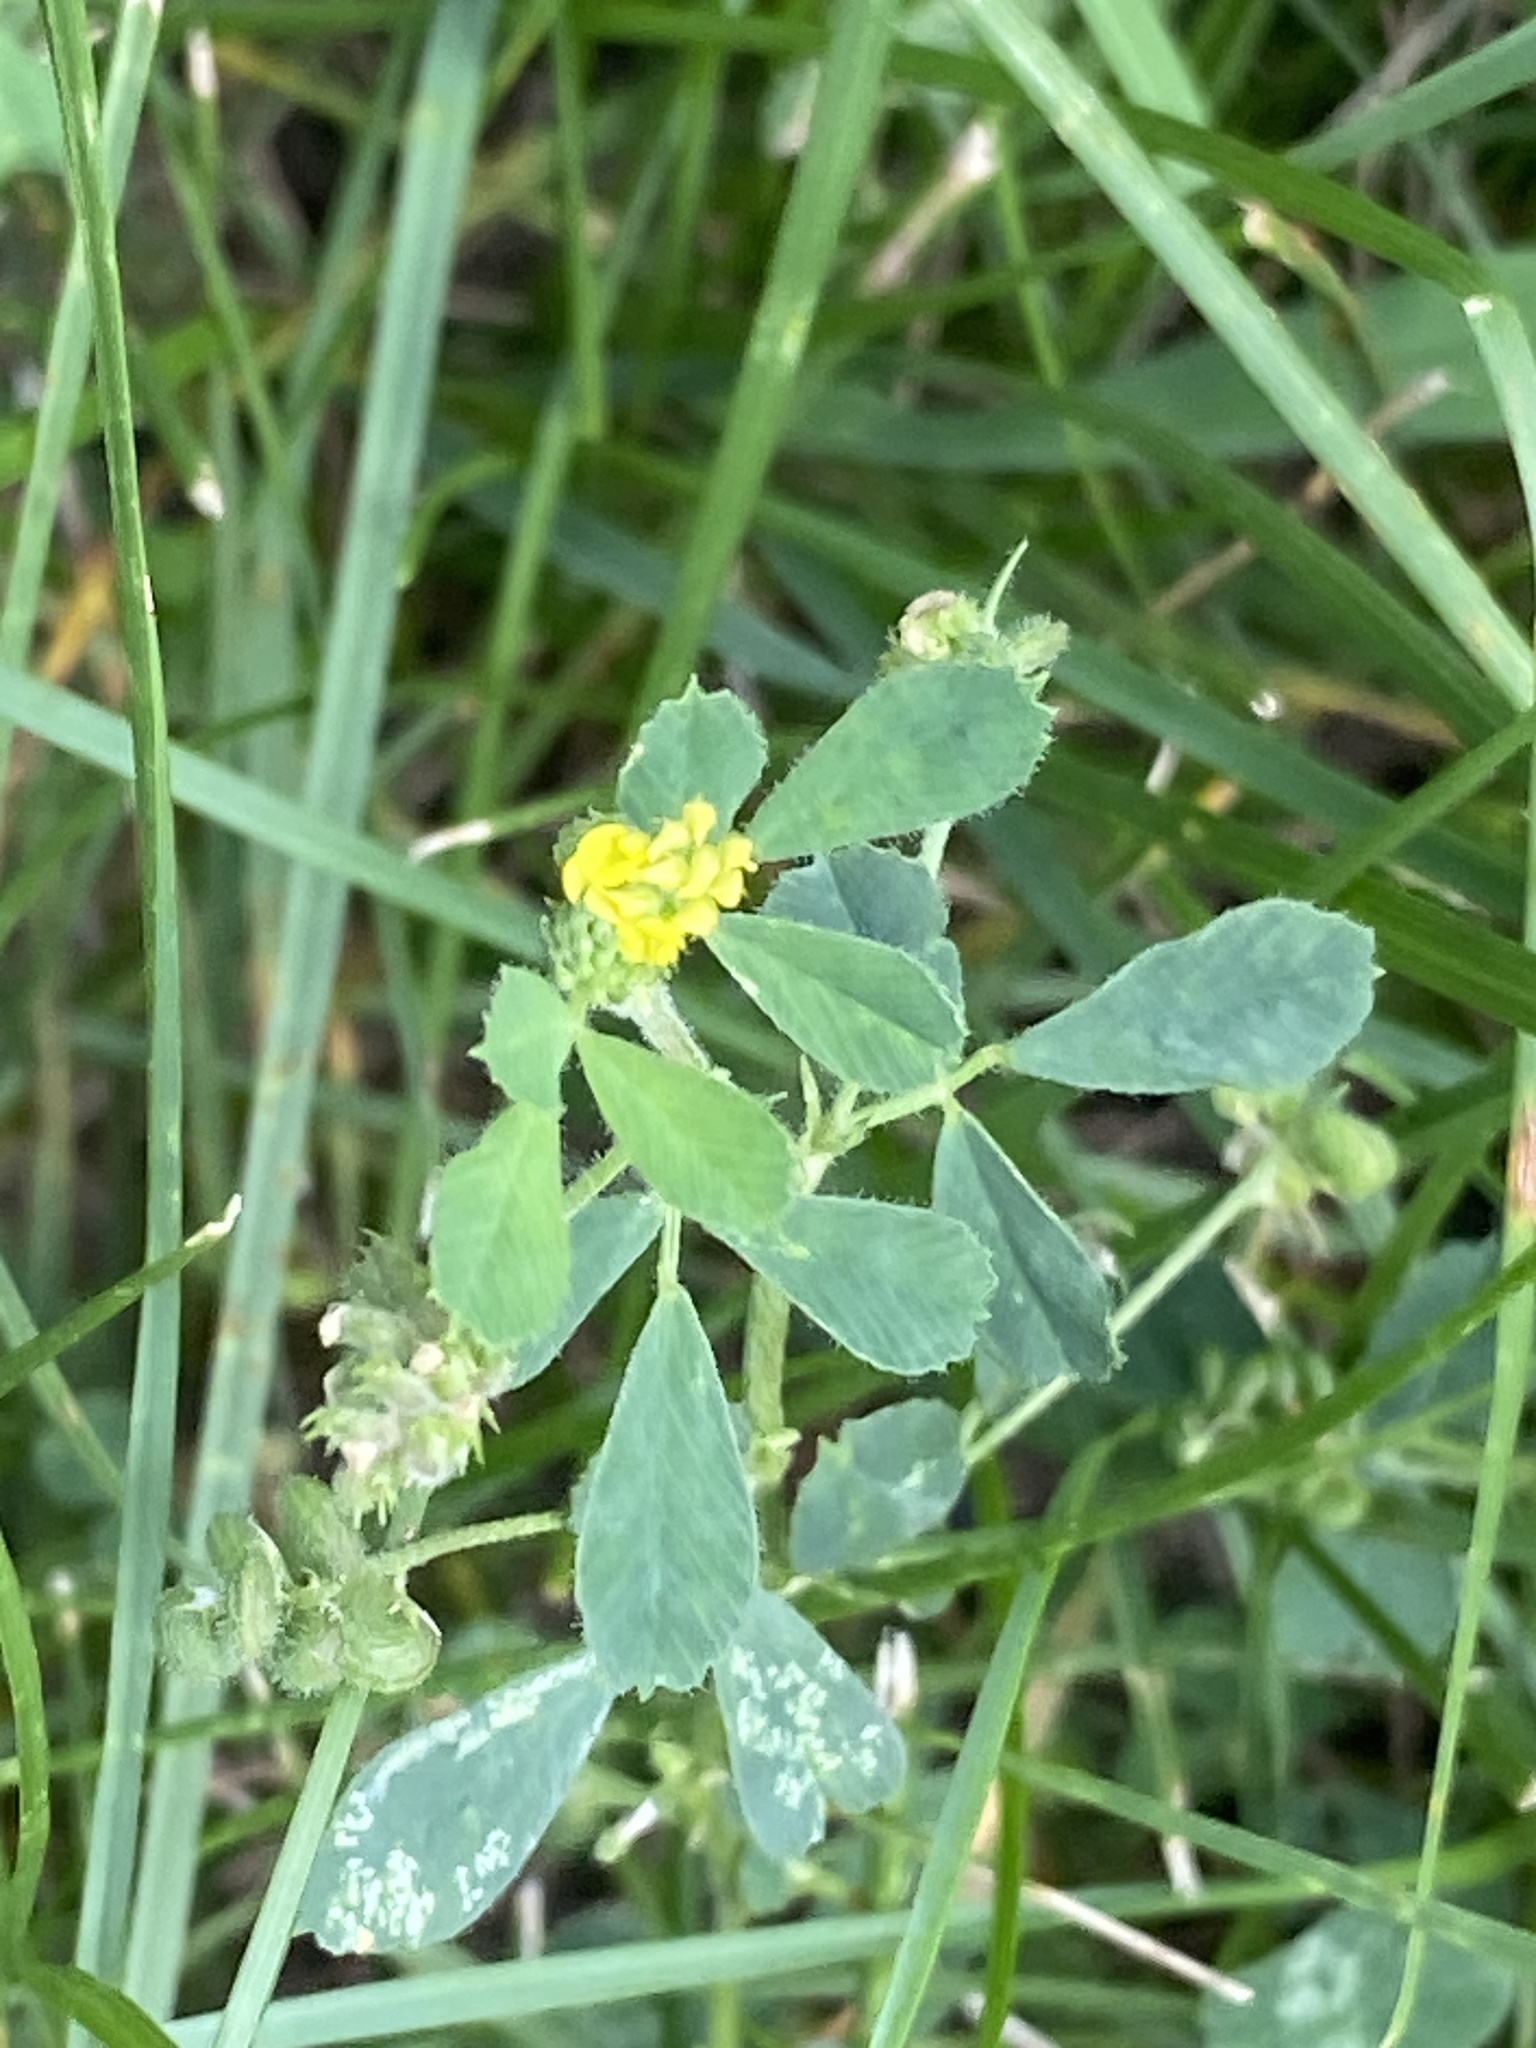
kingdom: Plantae
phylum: Tracheophyta
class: Magnoliopsida
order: Fabales
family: Fabaceae
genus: Medicago
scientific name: Medicago lupulina
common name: Black medick
